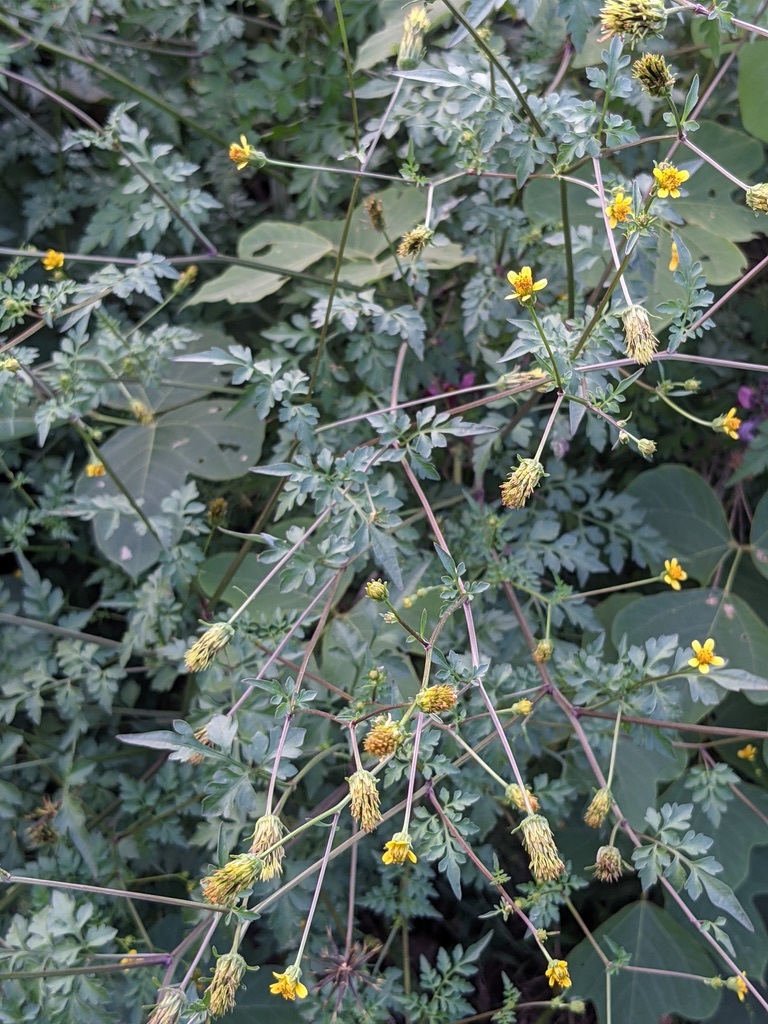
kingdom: Plantae
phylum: Tracheophyta
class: Magnoliopsida
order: Asterales
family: Asteraceae
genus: Bidens
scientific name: Bidens bipinnata
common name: Spanish-needles
